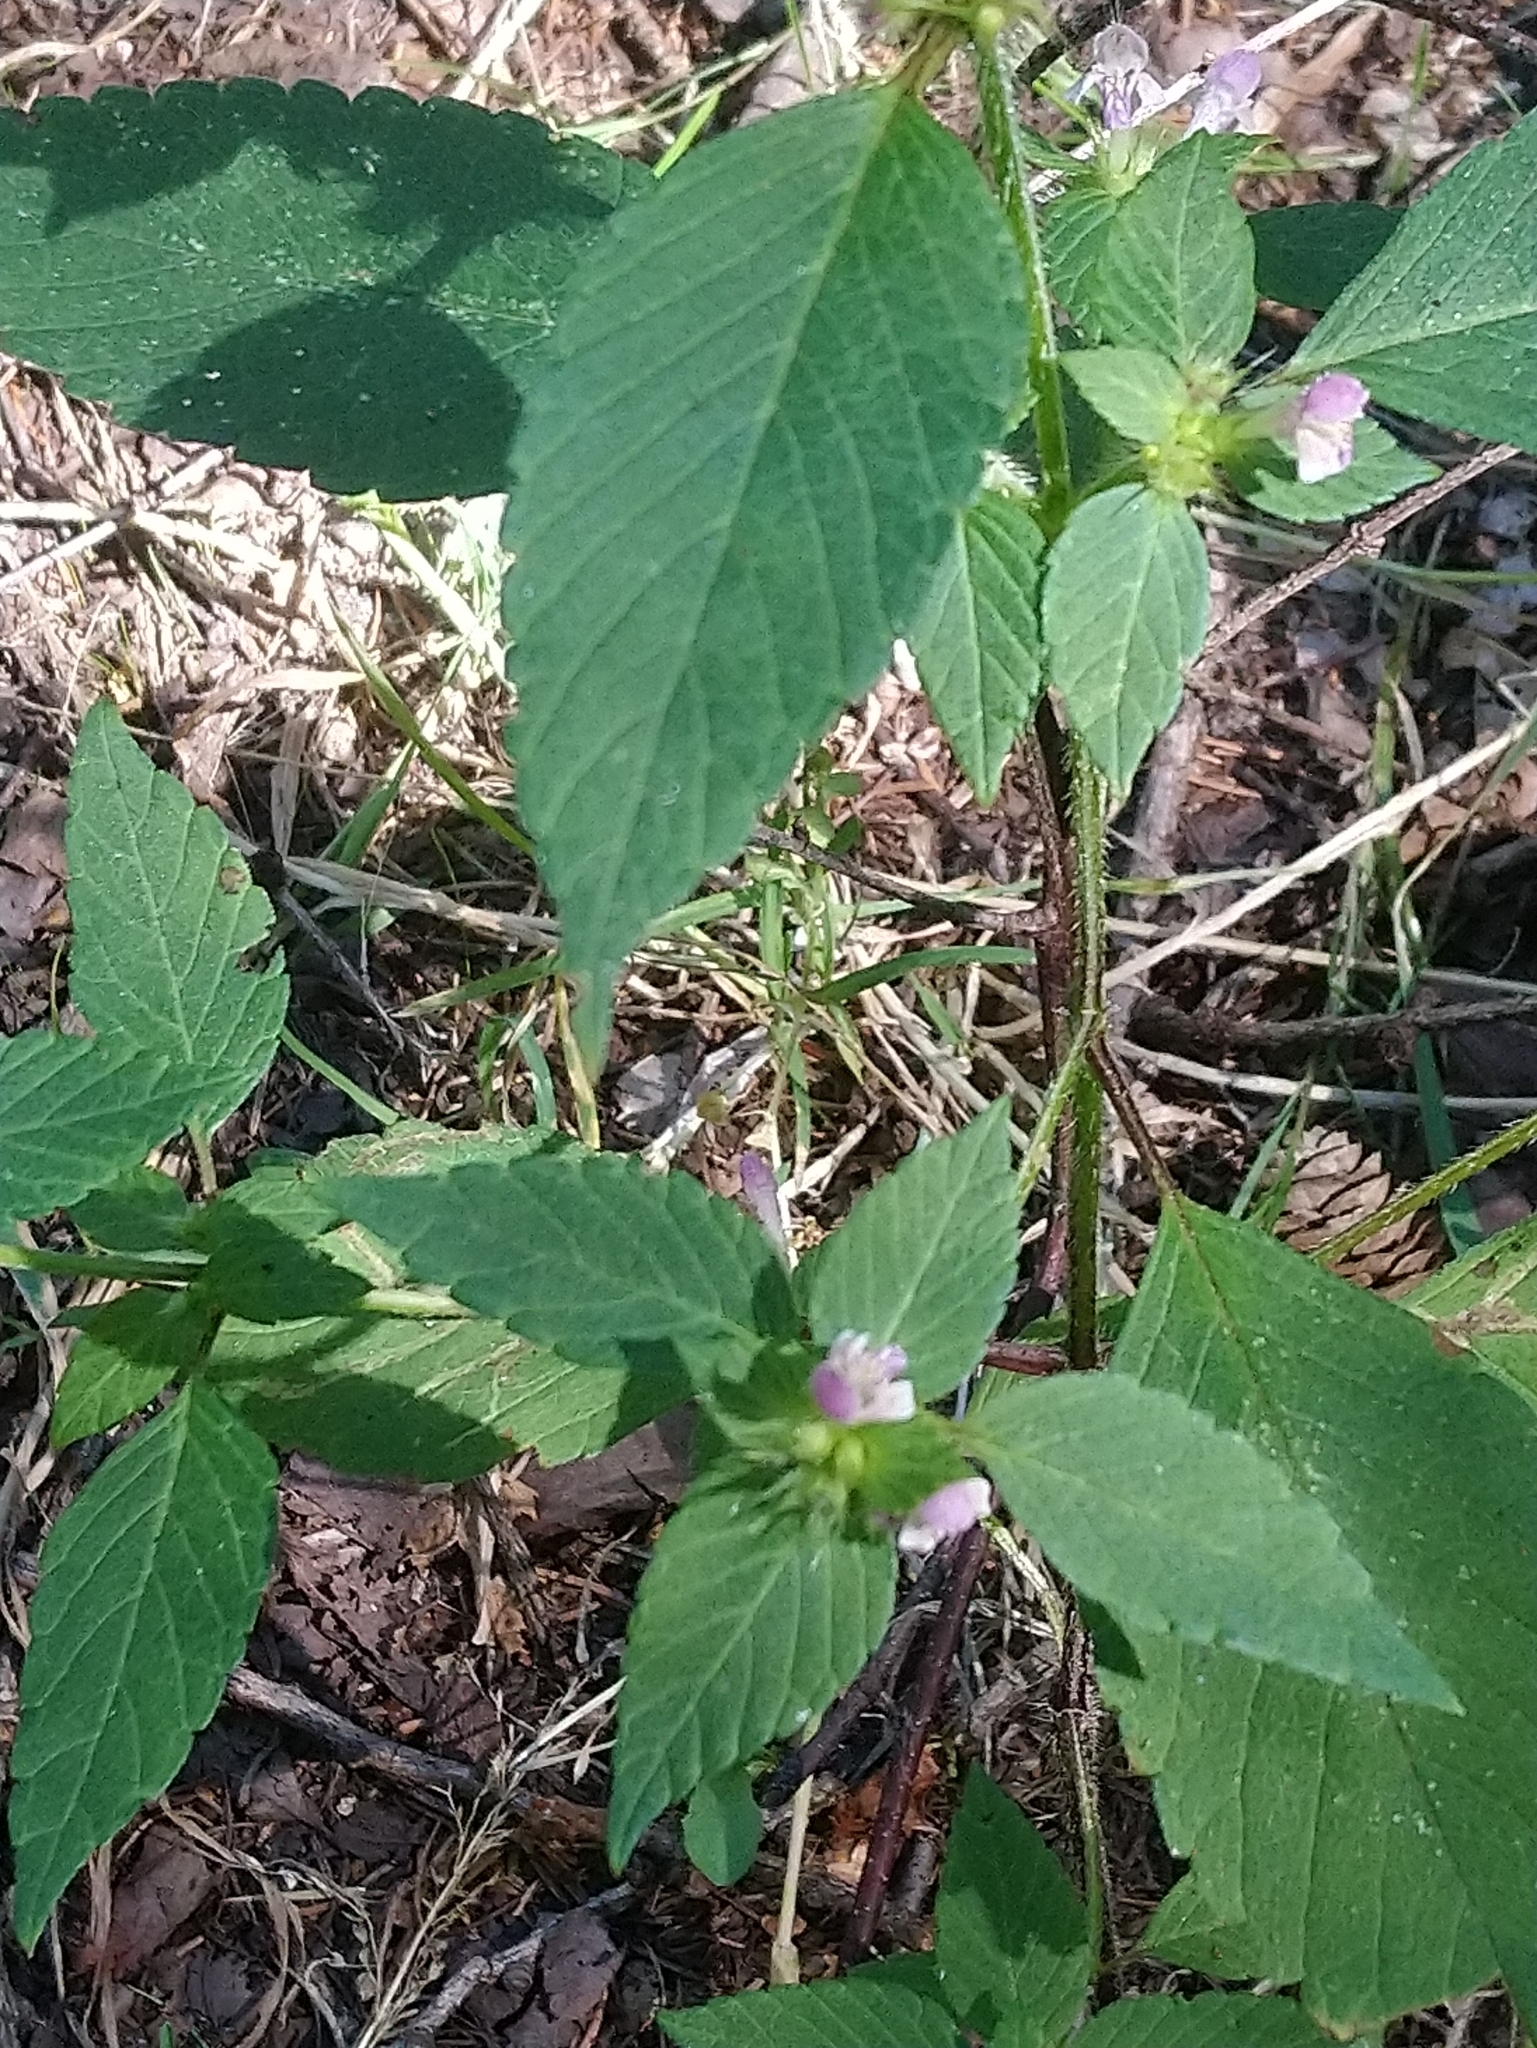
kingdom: Plantae
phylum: Tracheophyta
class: Magnoliopsida
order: Lamiales
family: Lamiaceae
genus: Galeopsis
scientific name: Galeopsis bifida
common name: Bifid hemp-nettle
